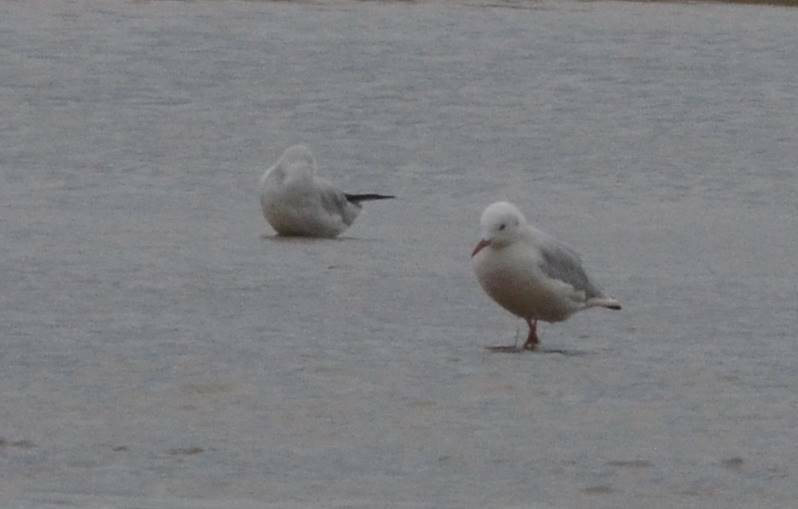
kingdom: Animalia
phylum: Chordata
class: Aves
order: Charadriiformes
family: Laridae
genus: Chroicocephalus
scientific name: Chroicocephalus genei
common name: Slender-billed gull
